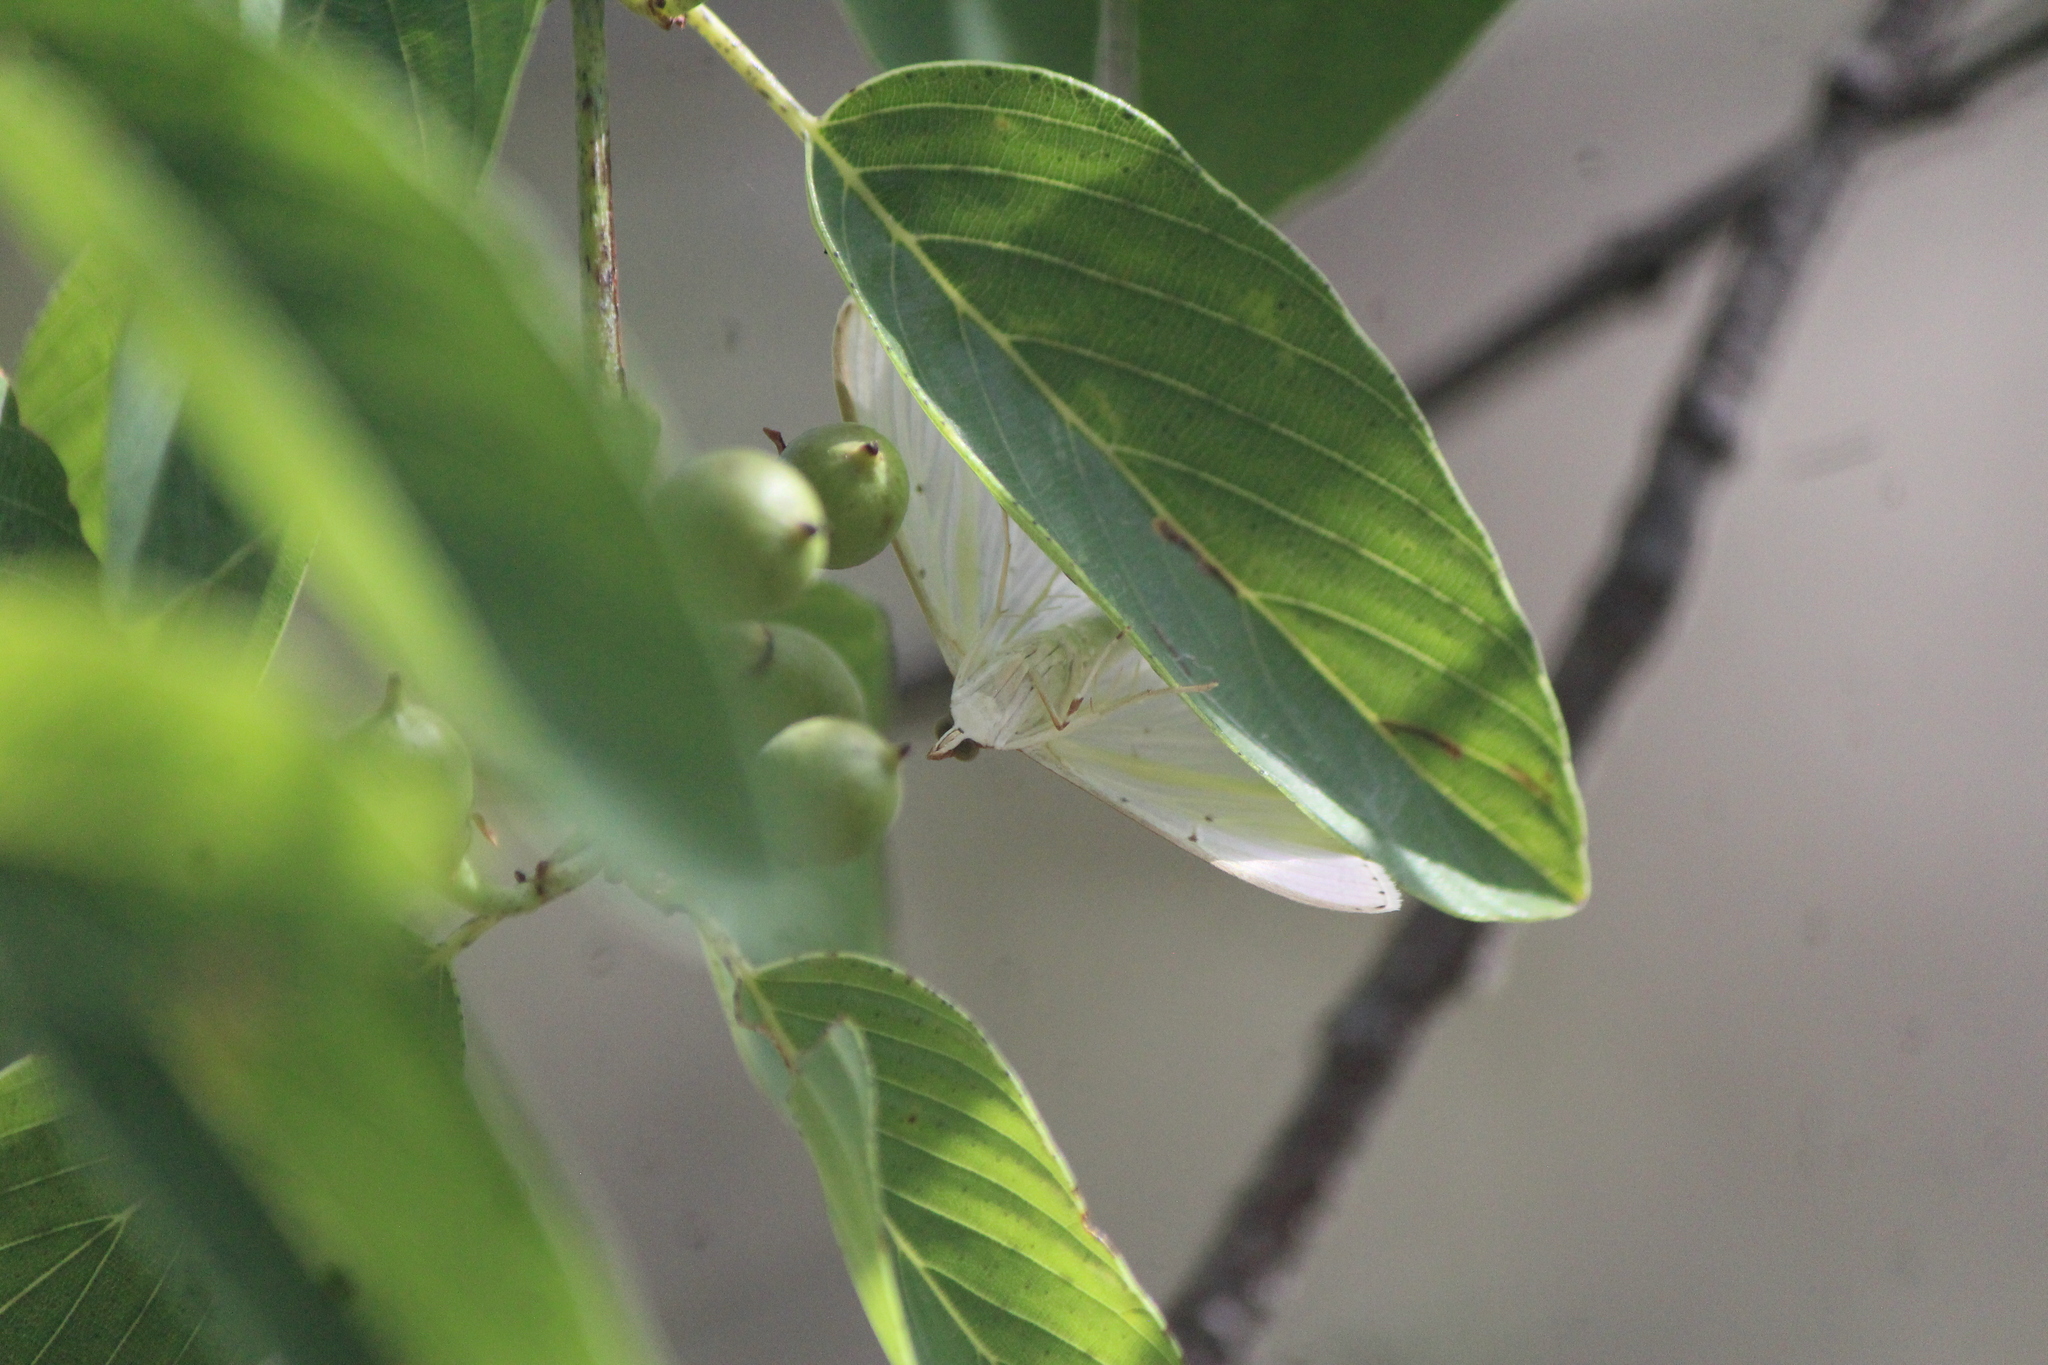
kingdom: Animalia
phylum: Arthropoda
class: Insecta
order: Lepidoptera
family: Crambidae
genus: Palpita
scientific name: Palpita quadristigmalis
